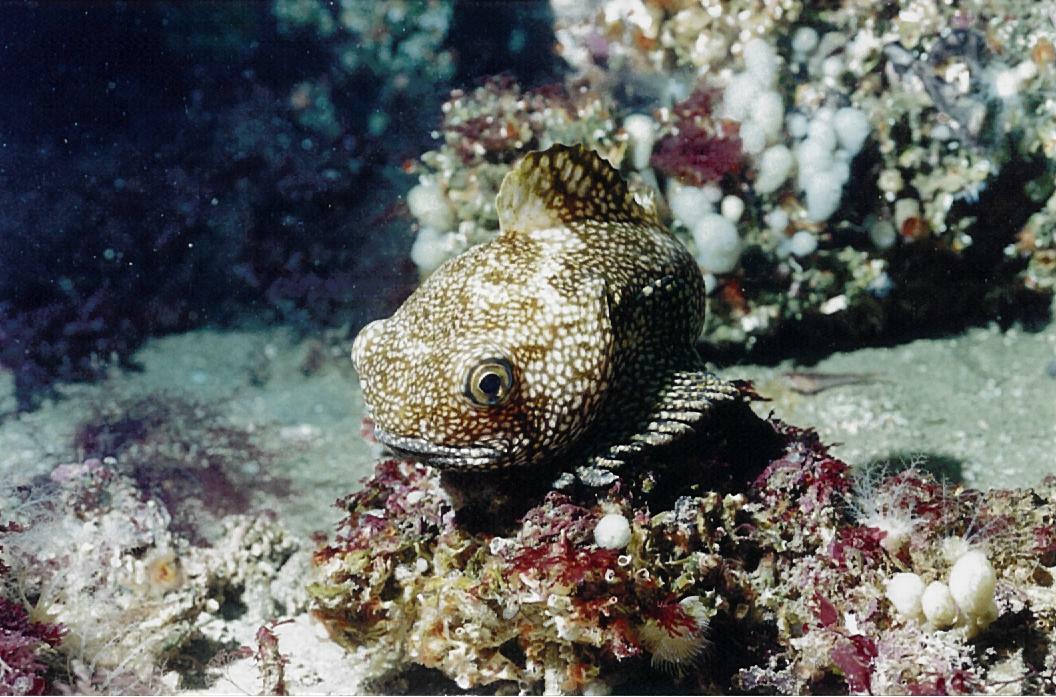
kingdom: Animalia
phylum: Chordata
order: Scorpaeniformes
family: Psychrolutidae
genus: Neophrynichthys
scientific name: Neophrynichthys latus
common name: Dark toadfish
